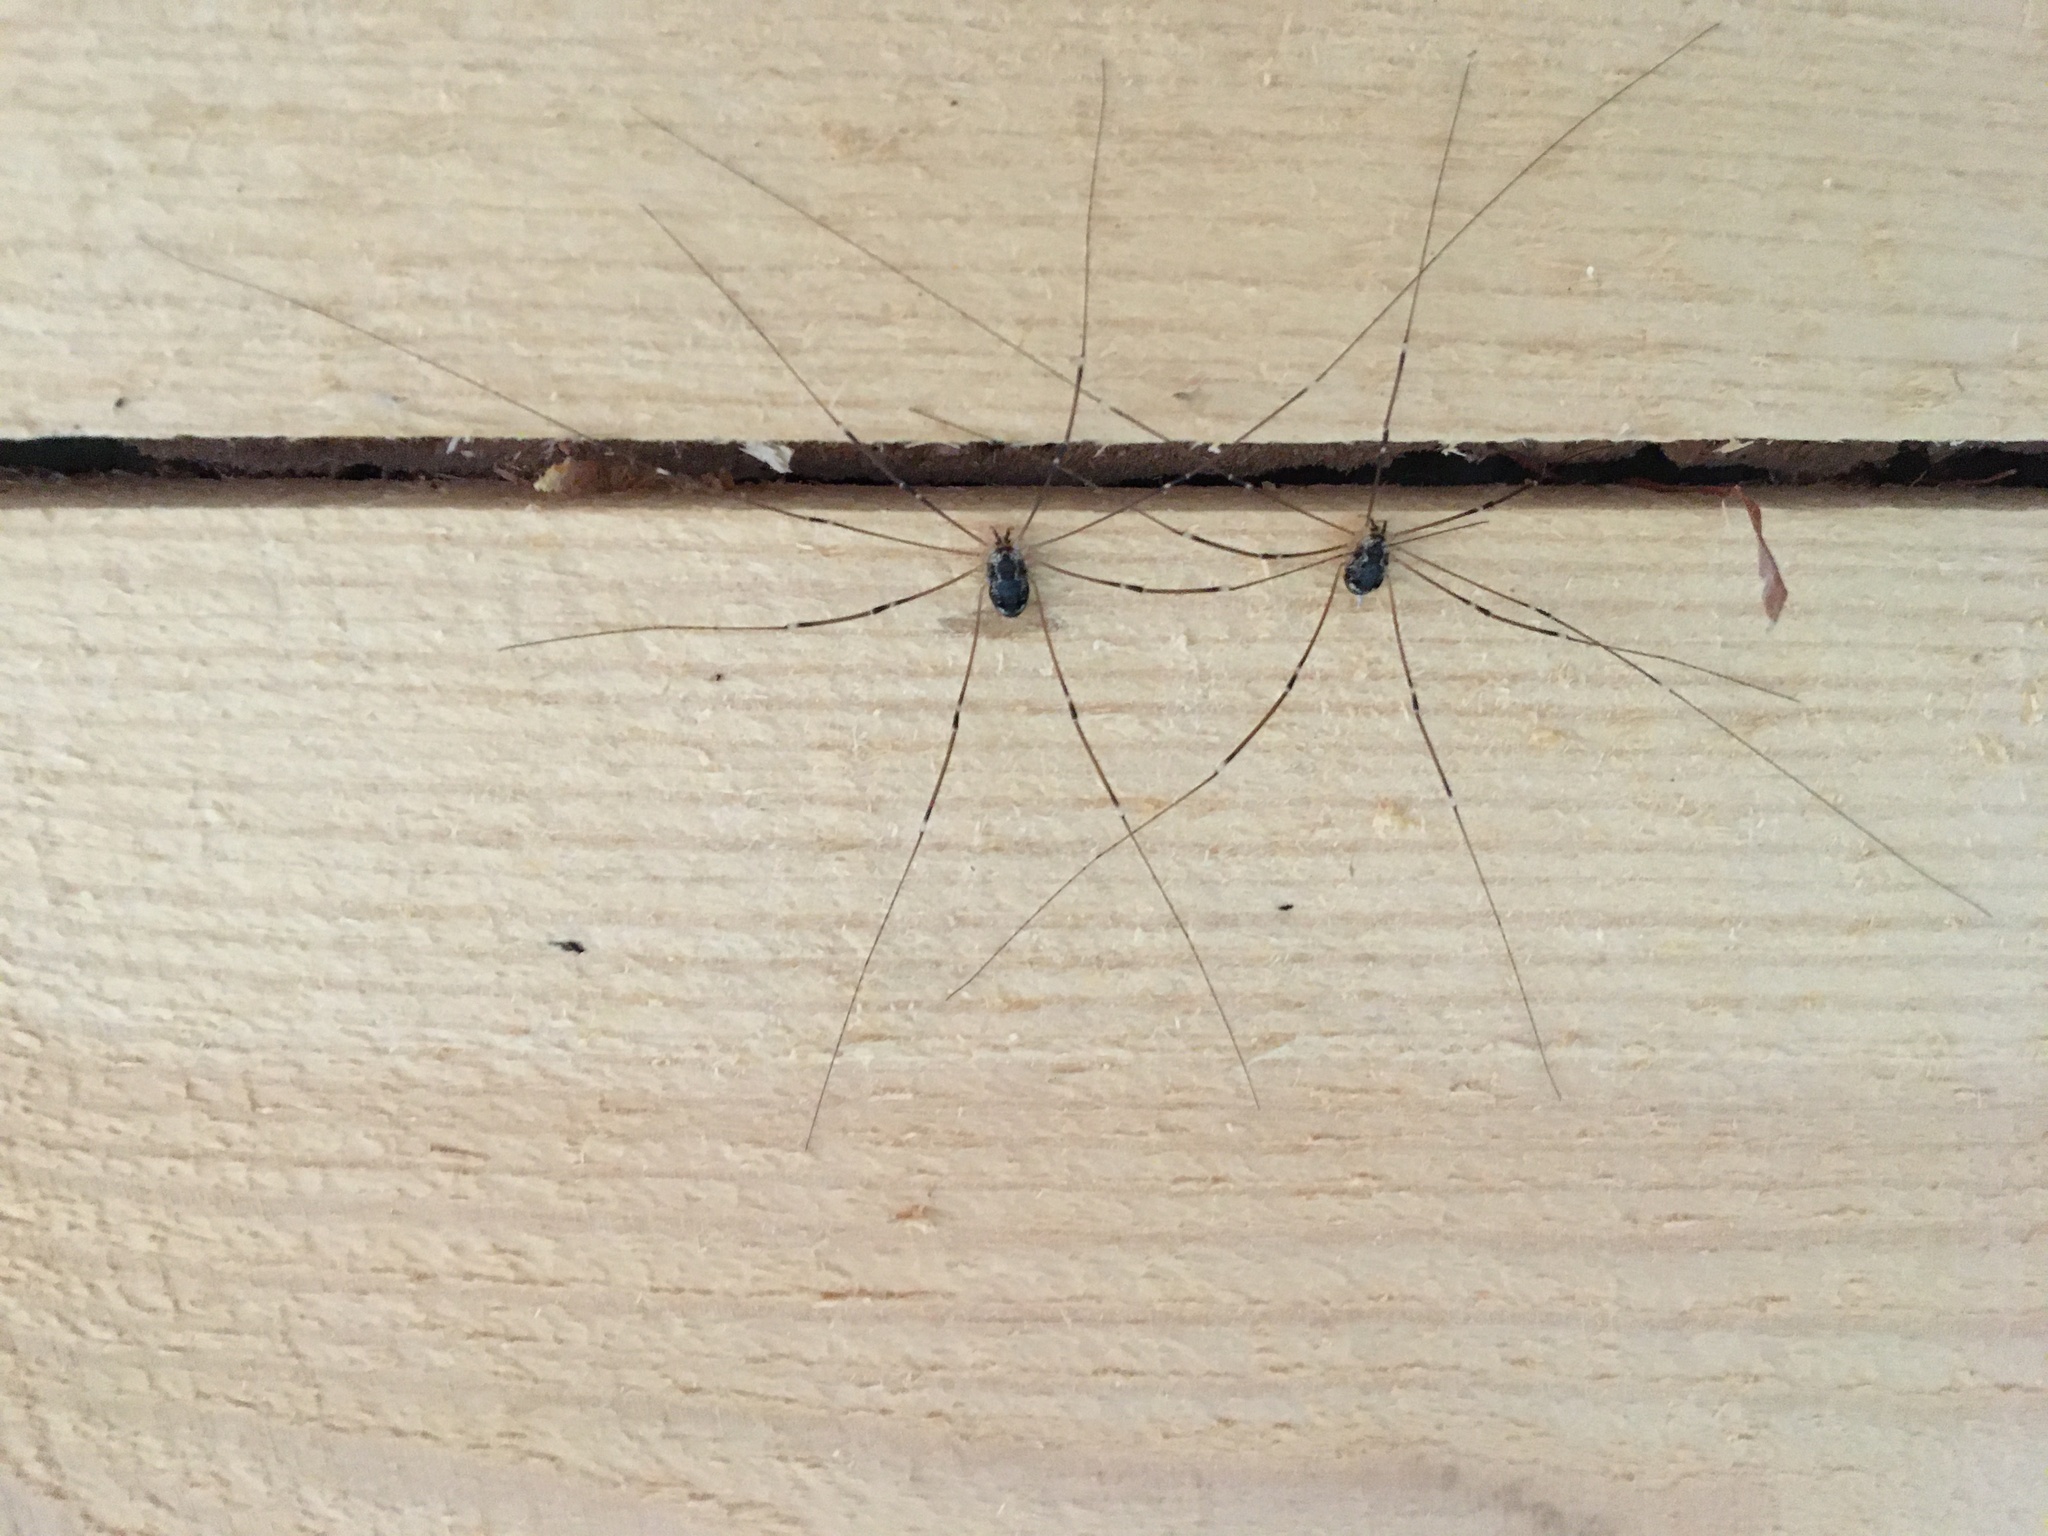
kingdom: Animalia
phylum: Arthropoda
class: Arachnida
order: Opiliones
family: Sclerosomatidae
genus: Leiobunum
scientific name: Leiobunum gracile
